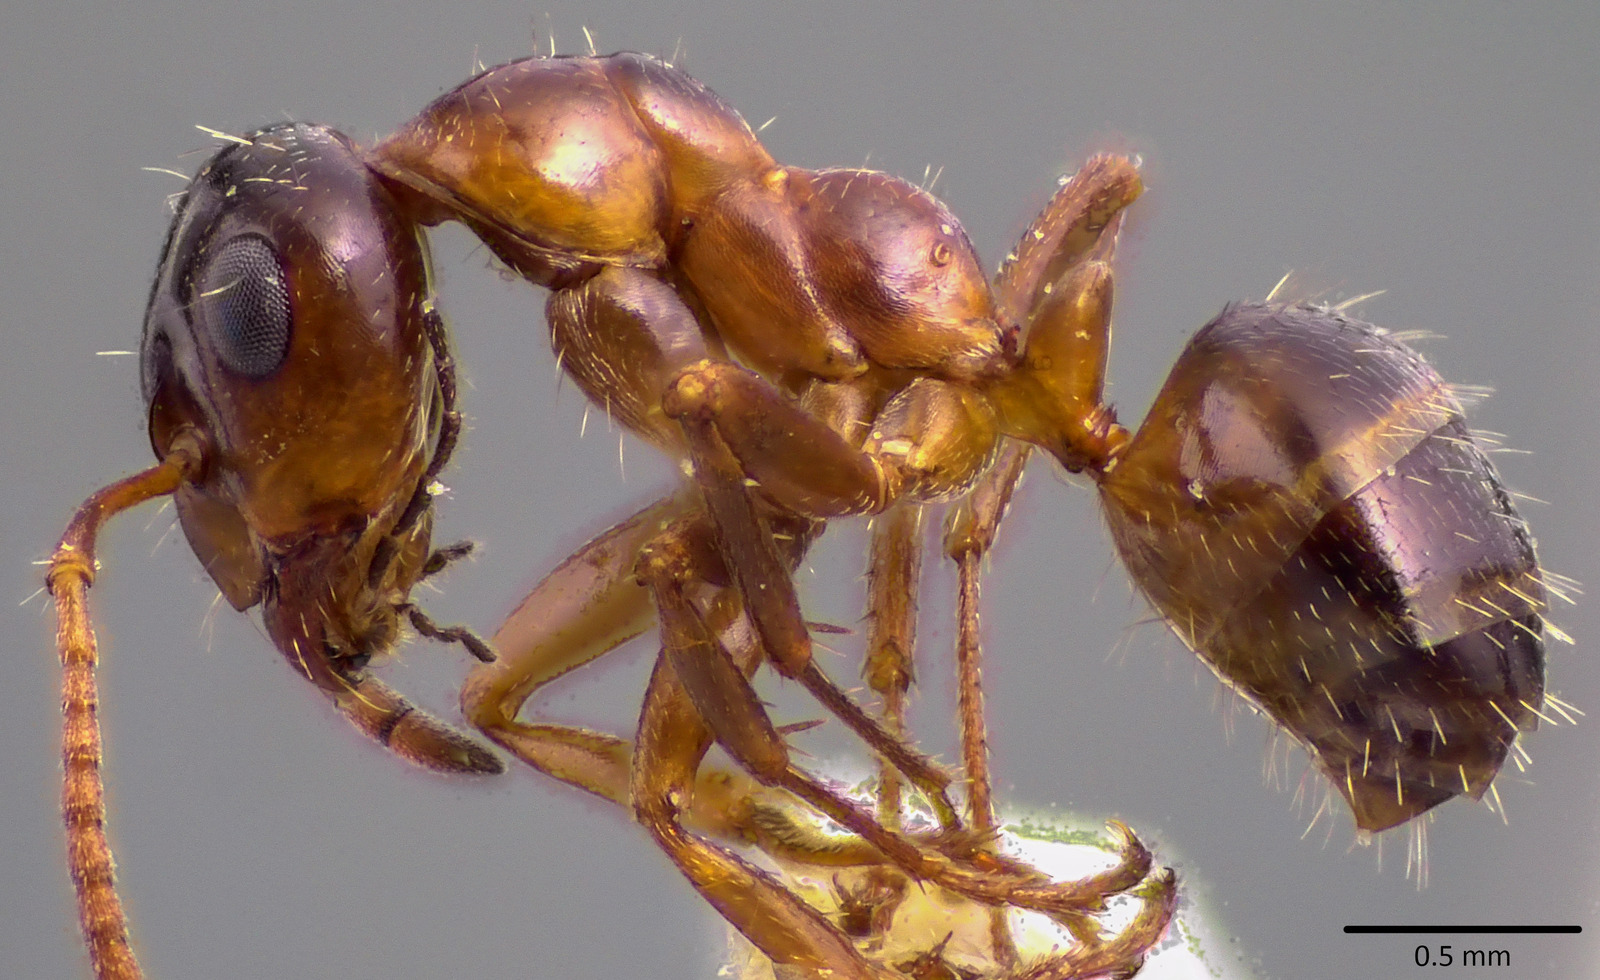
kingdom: Animalia
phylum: Arthropoda
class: Insecta
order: Hymenoptera
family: Formicidae
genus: Formica
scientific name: Formica vinculans
